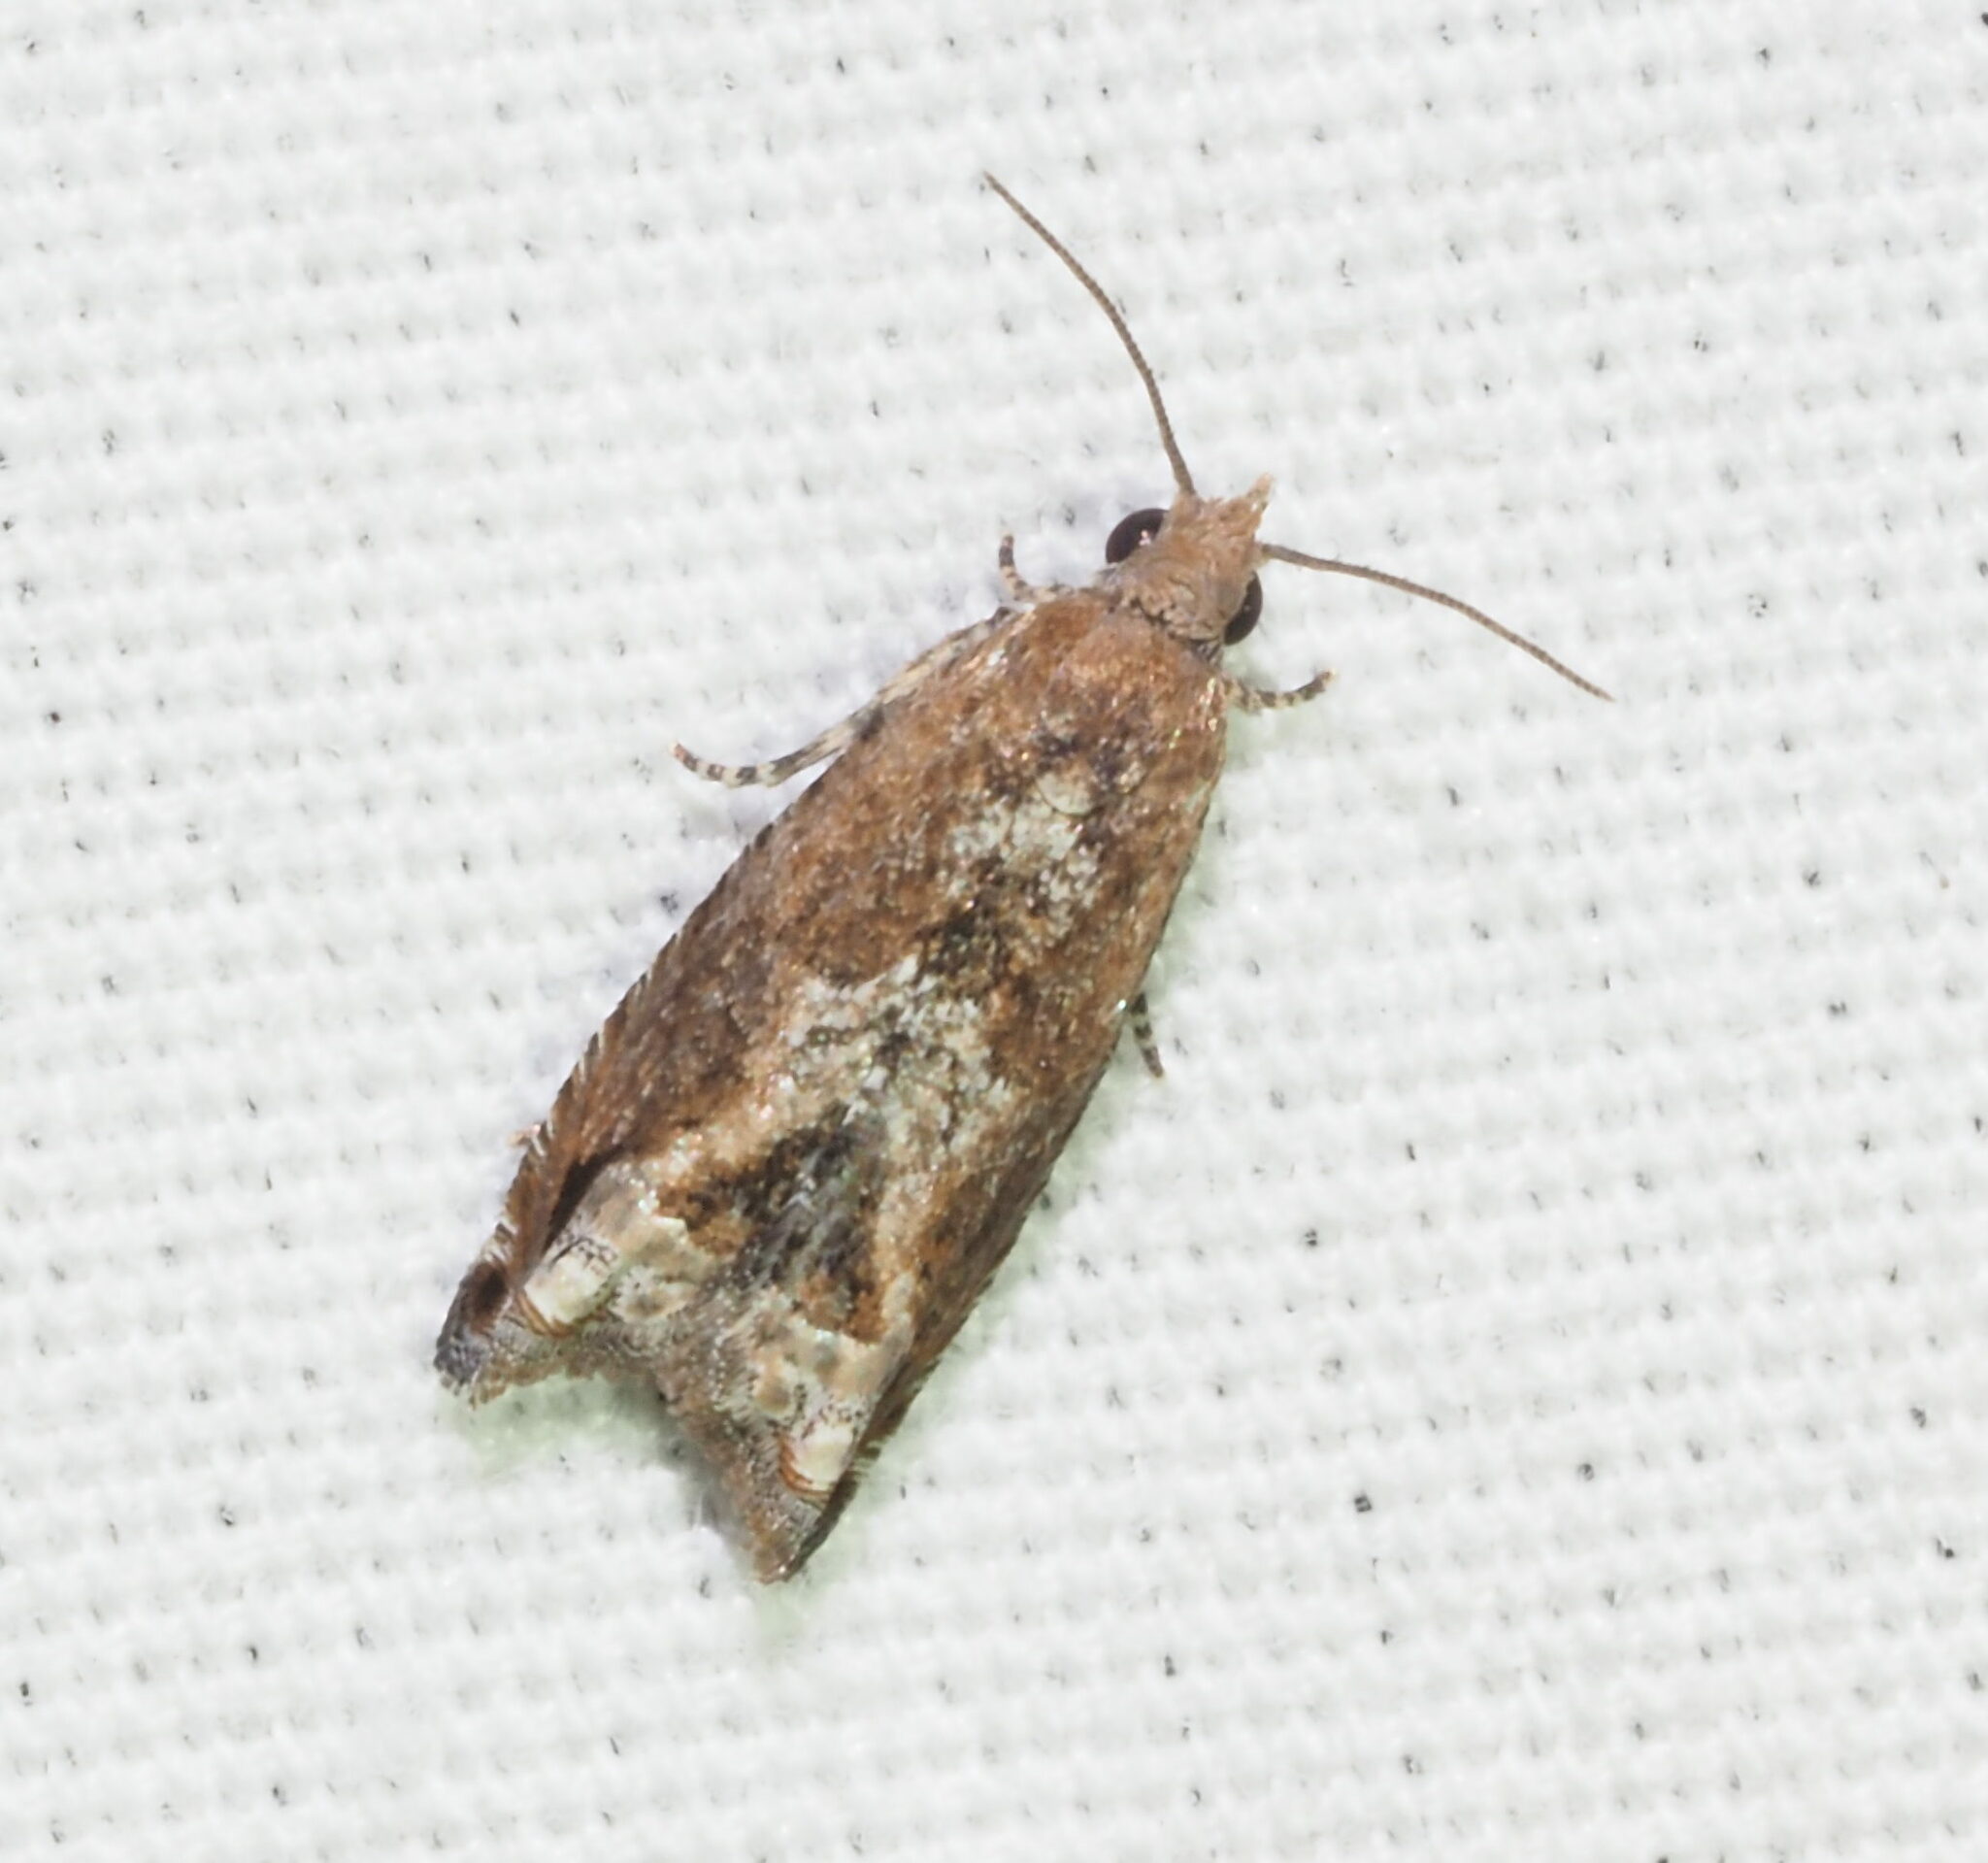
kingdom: Animalia
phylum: Arthropoda
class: Insecta
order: Lepidoptera
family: Tortricidae
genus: Crocidosema
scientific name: Crocidosema lantana
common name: Lantana flower-cluster moth
